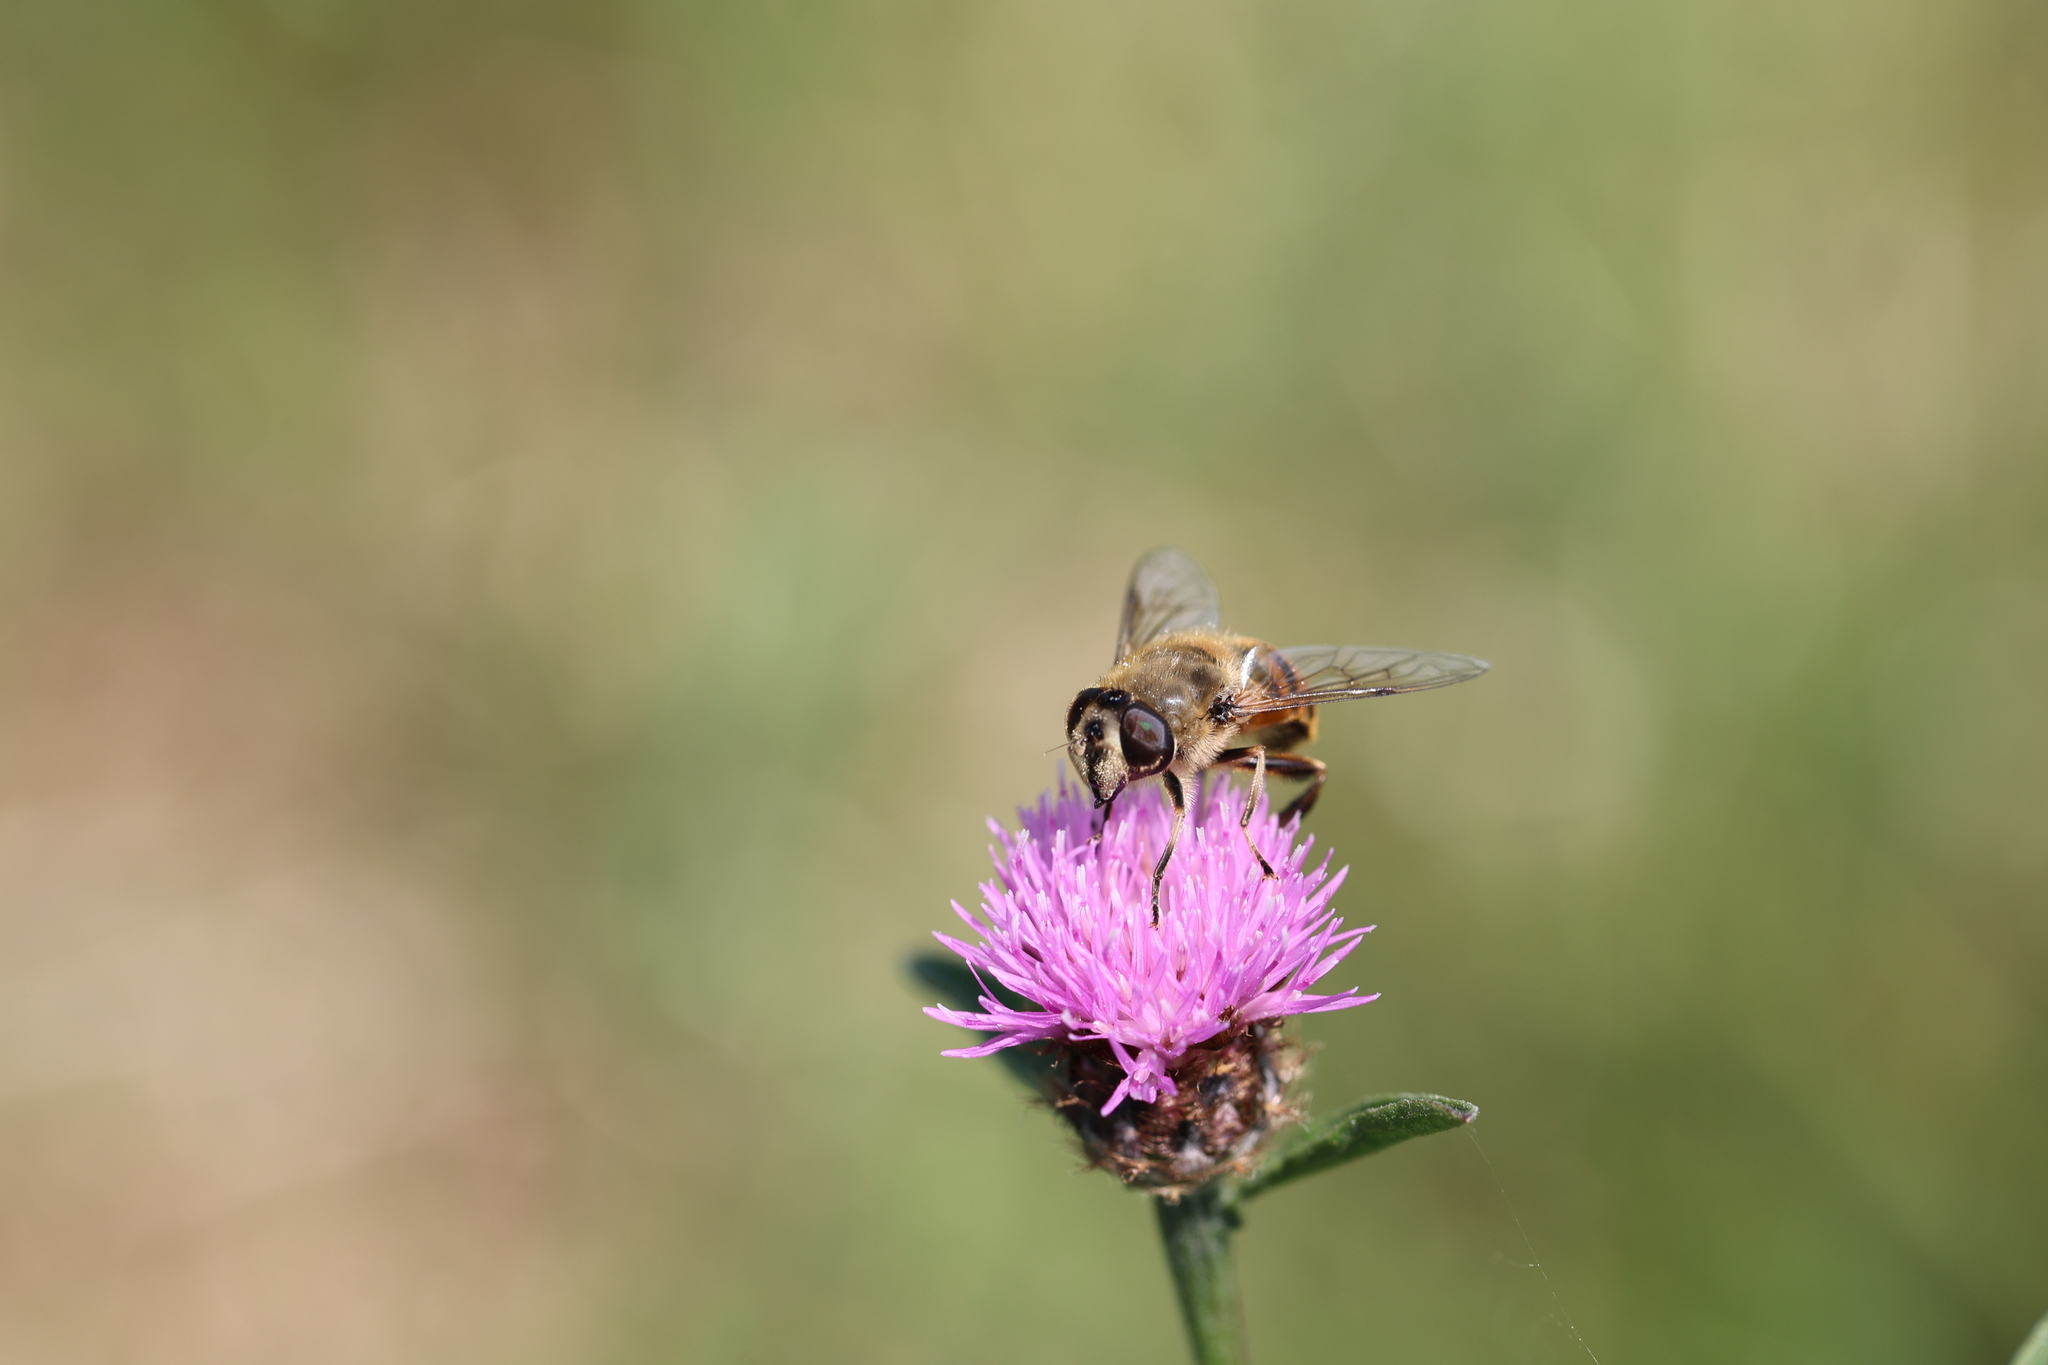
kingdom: Animalia
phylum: Arthropoda
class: Insecta
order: Diptera
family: Syrphidae
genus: Eristalis
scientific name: Eristalis tenax
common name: Drone fly
